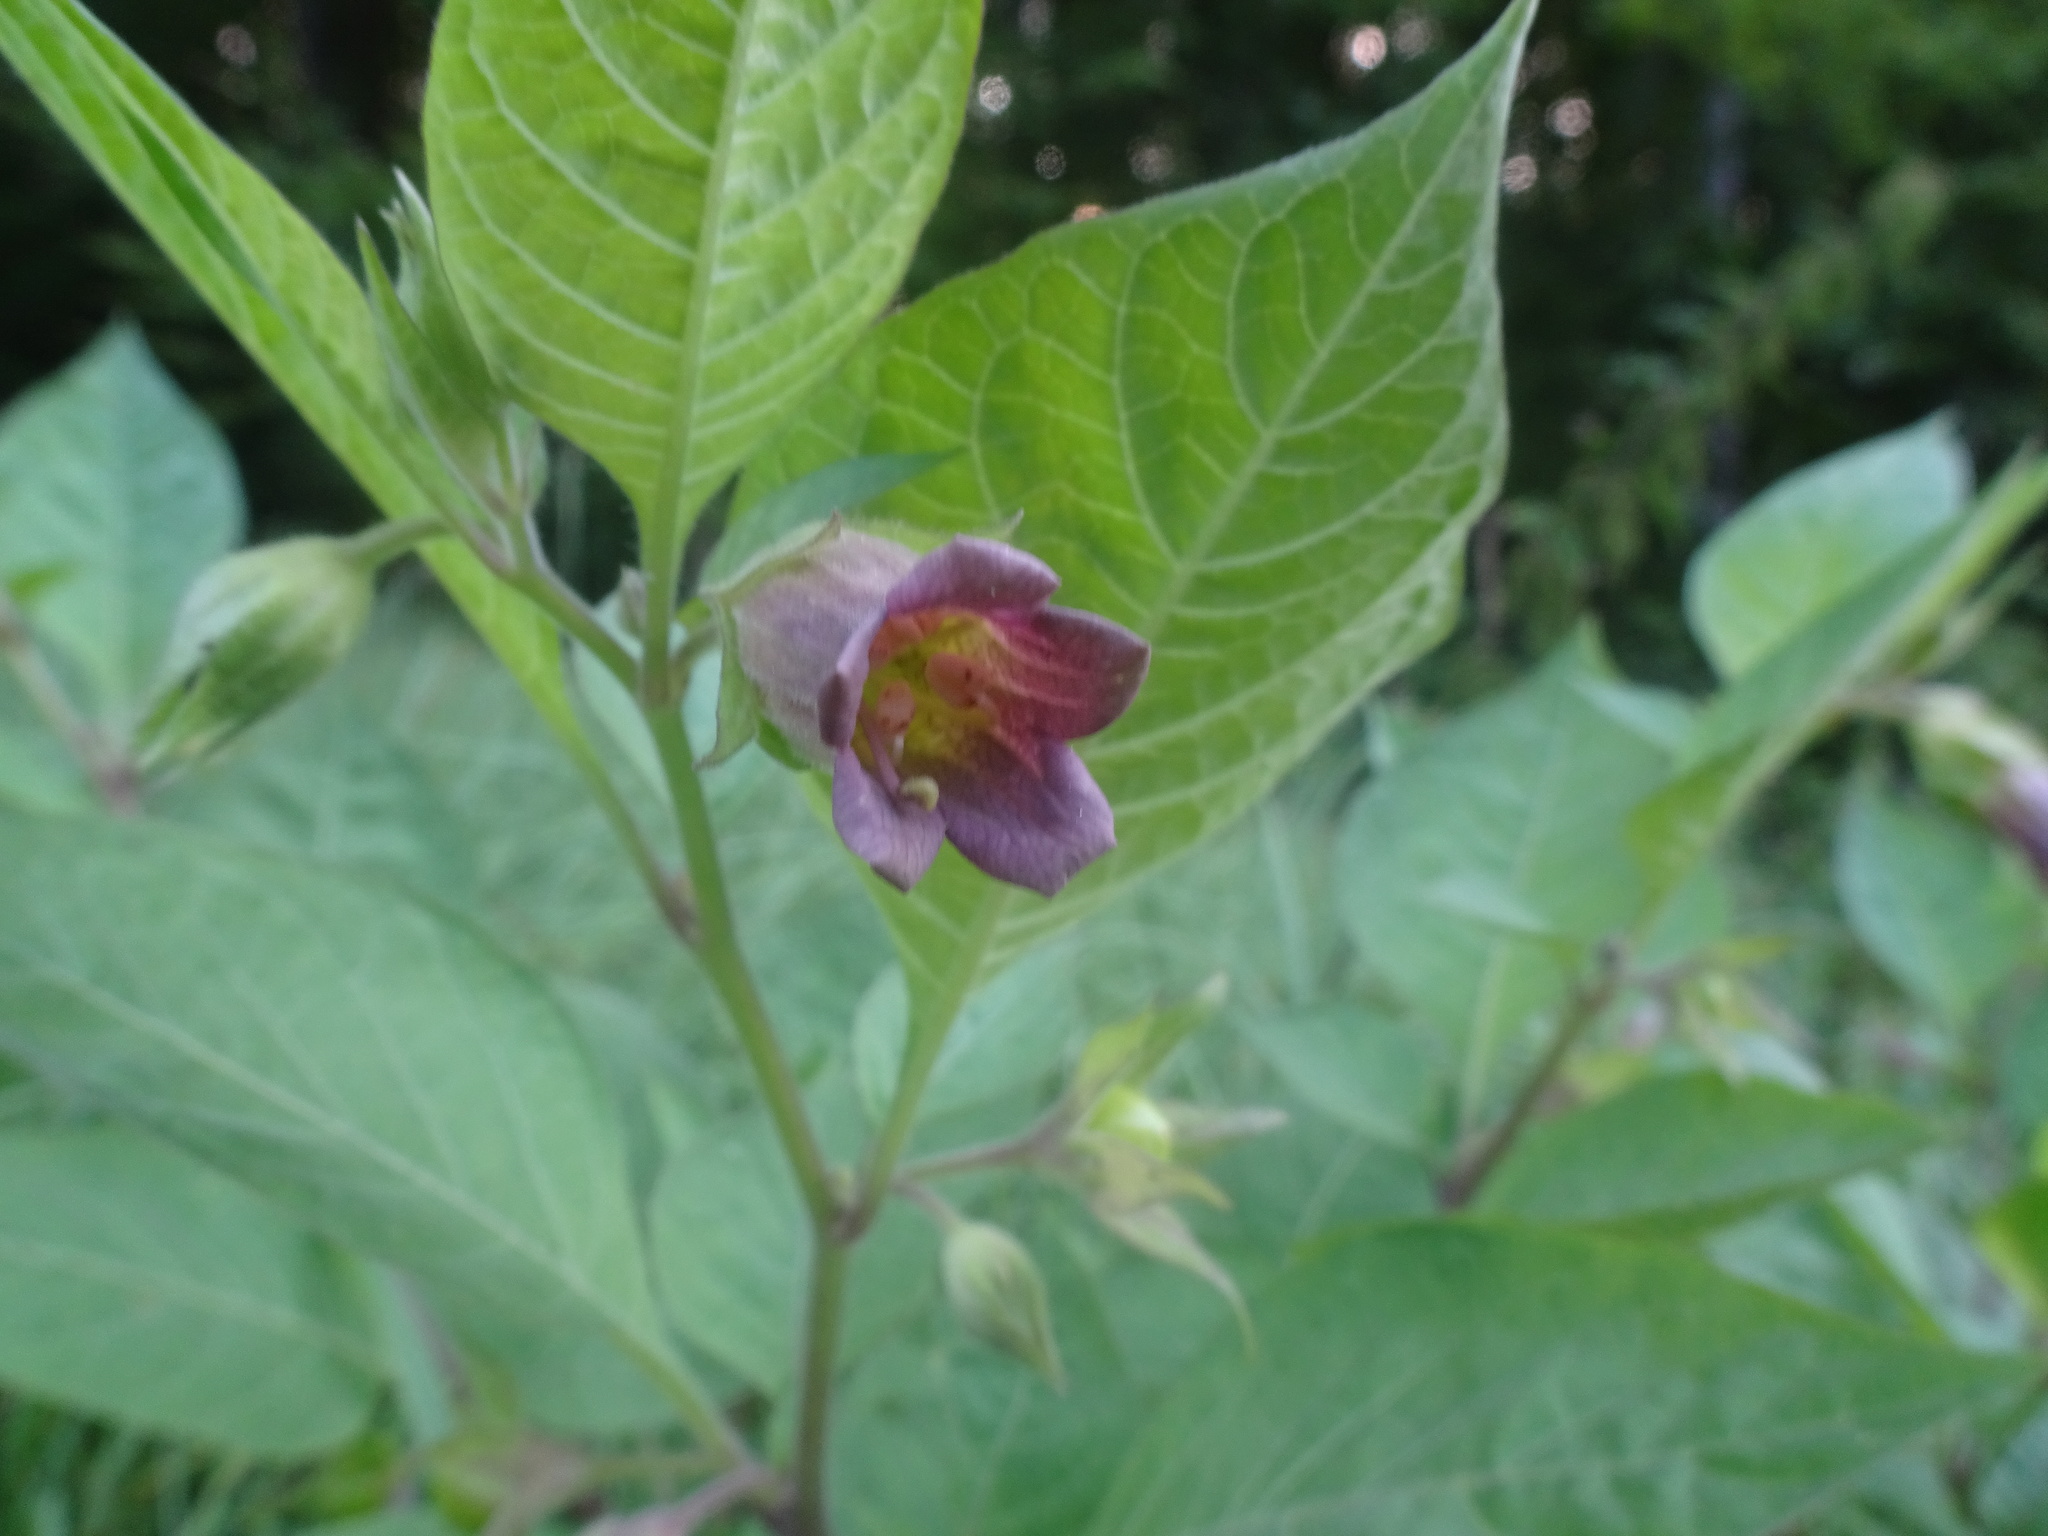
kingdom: Plantae
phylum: Tracheophyta
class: Magnoliopsida
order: Solanales
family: Solanaceae
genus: Atropa
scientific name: Atropa belladonna
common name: Deadly nightshade
